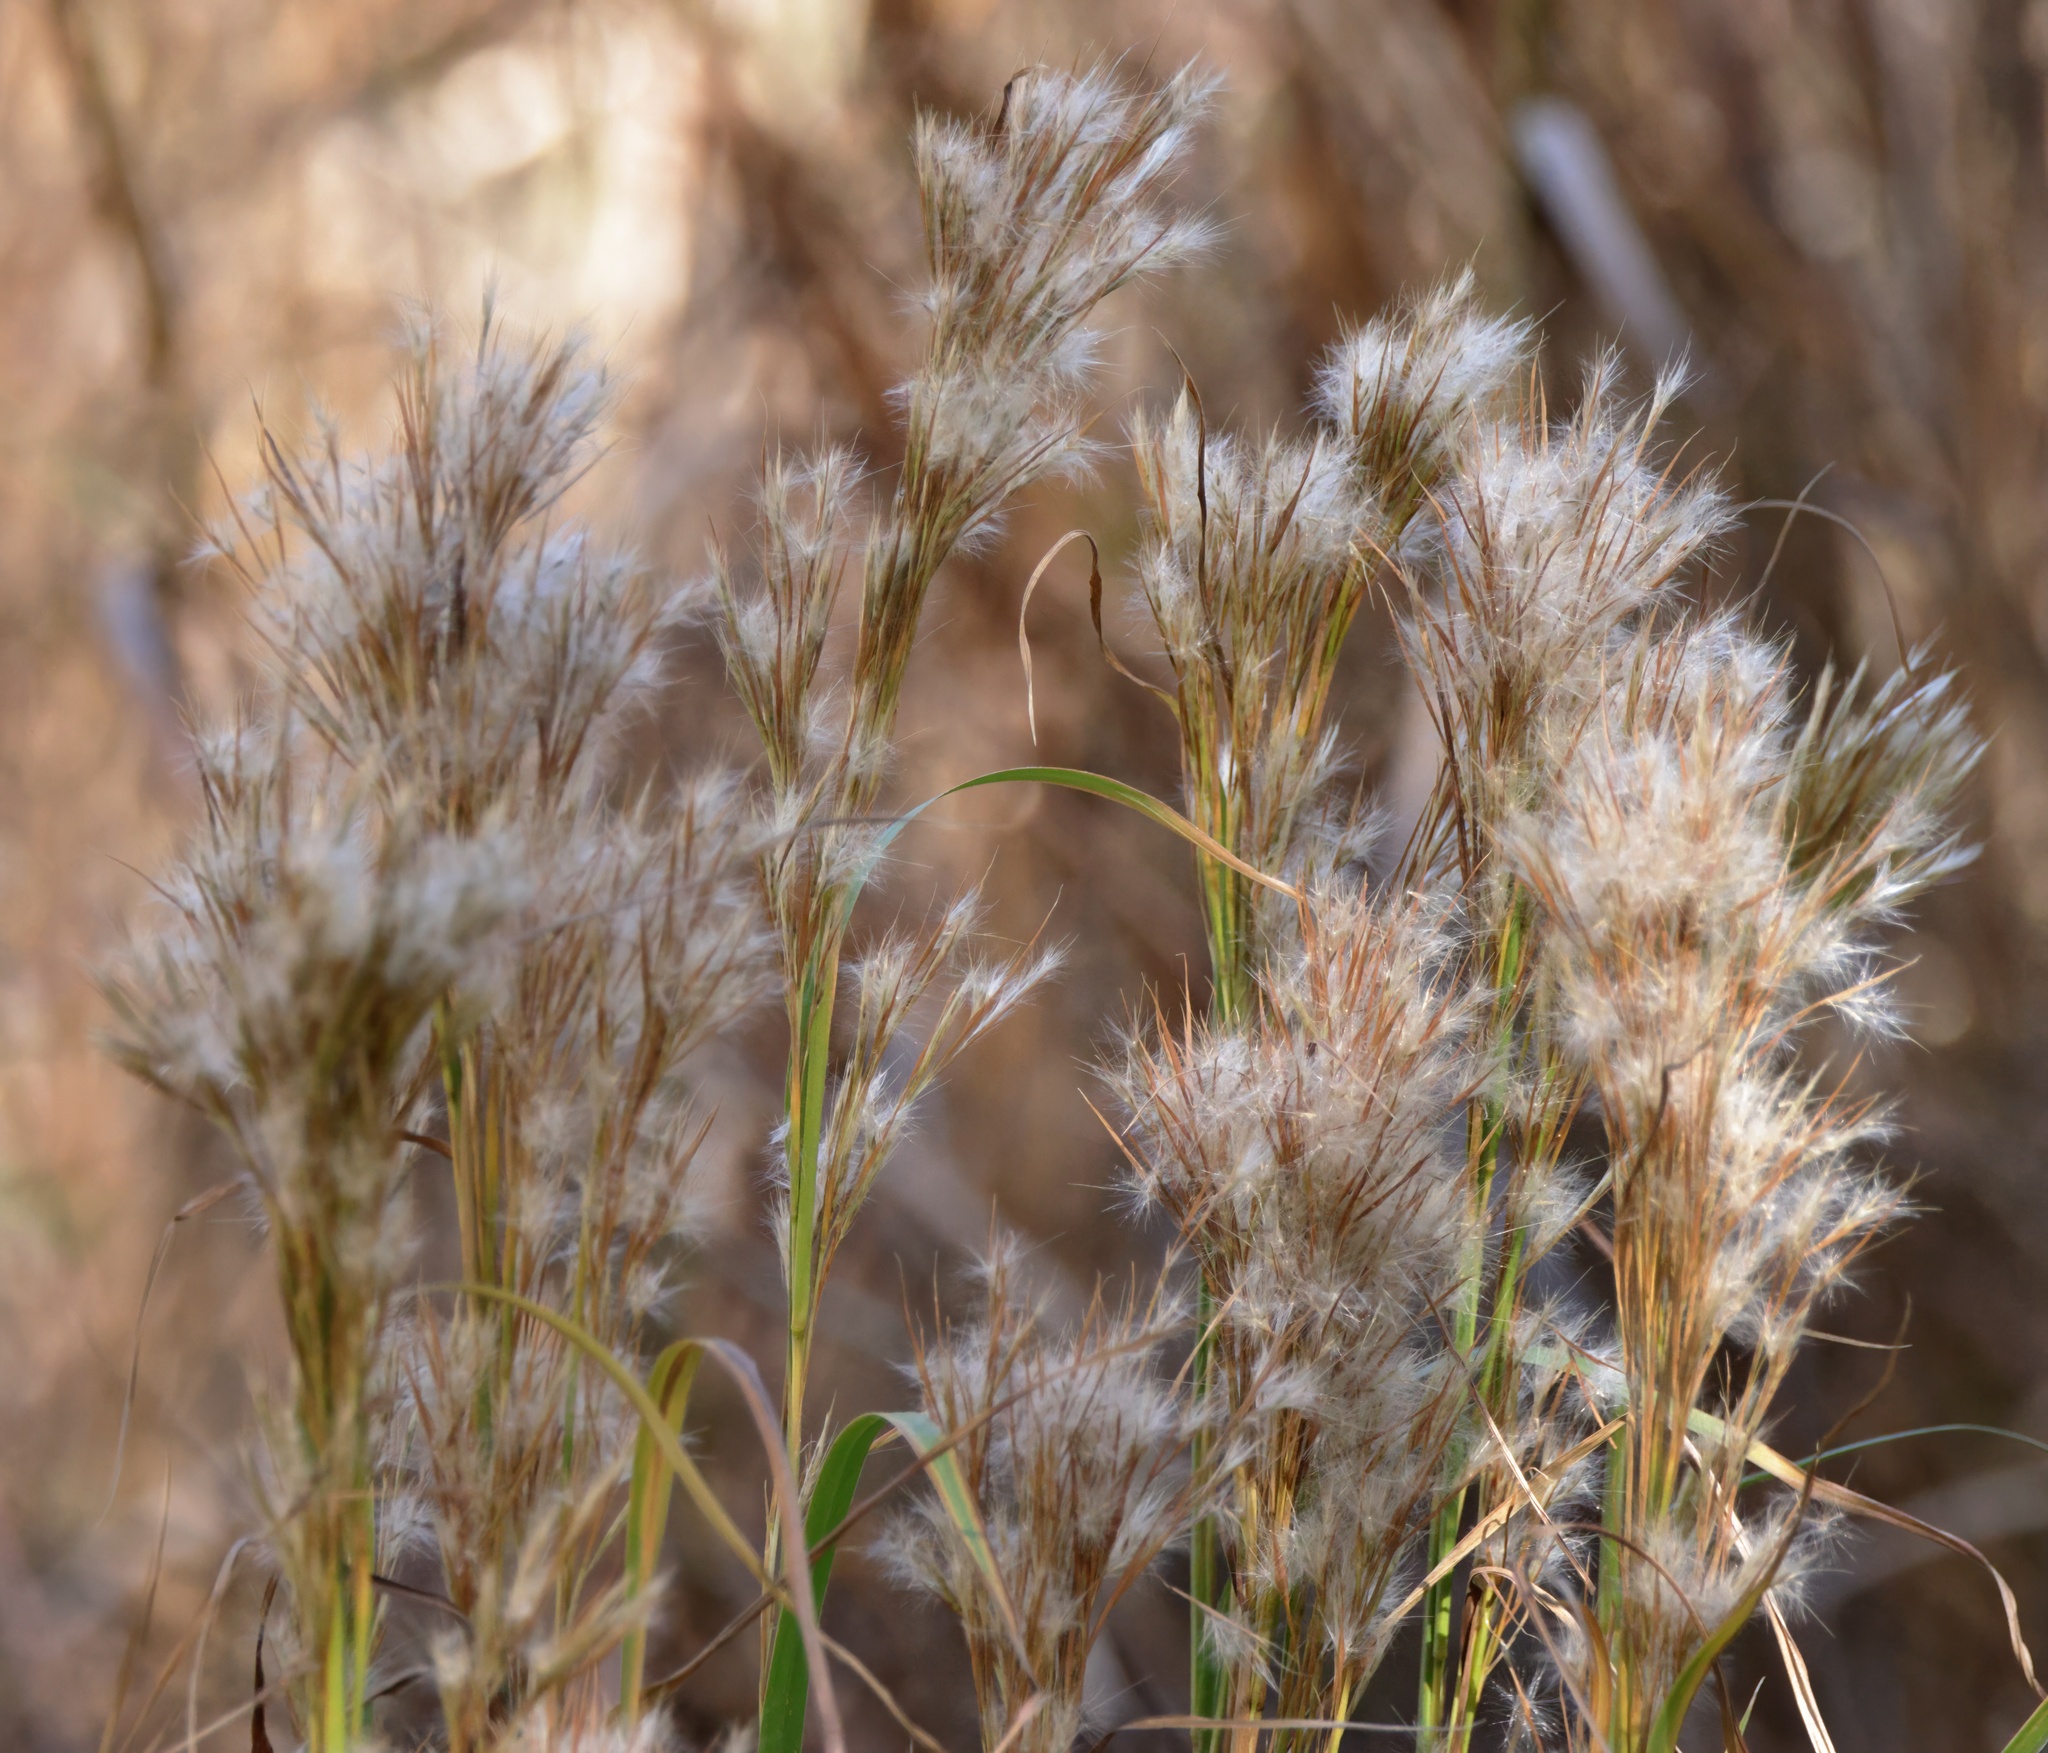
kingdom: Plantae
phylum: Tracheophyta
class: Liliopsida
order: Poales
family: Poaceae
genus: Andropogon
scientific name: Andropogon tenuispatheus
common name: Bushy bluestem
